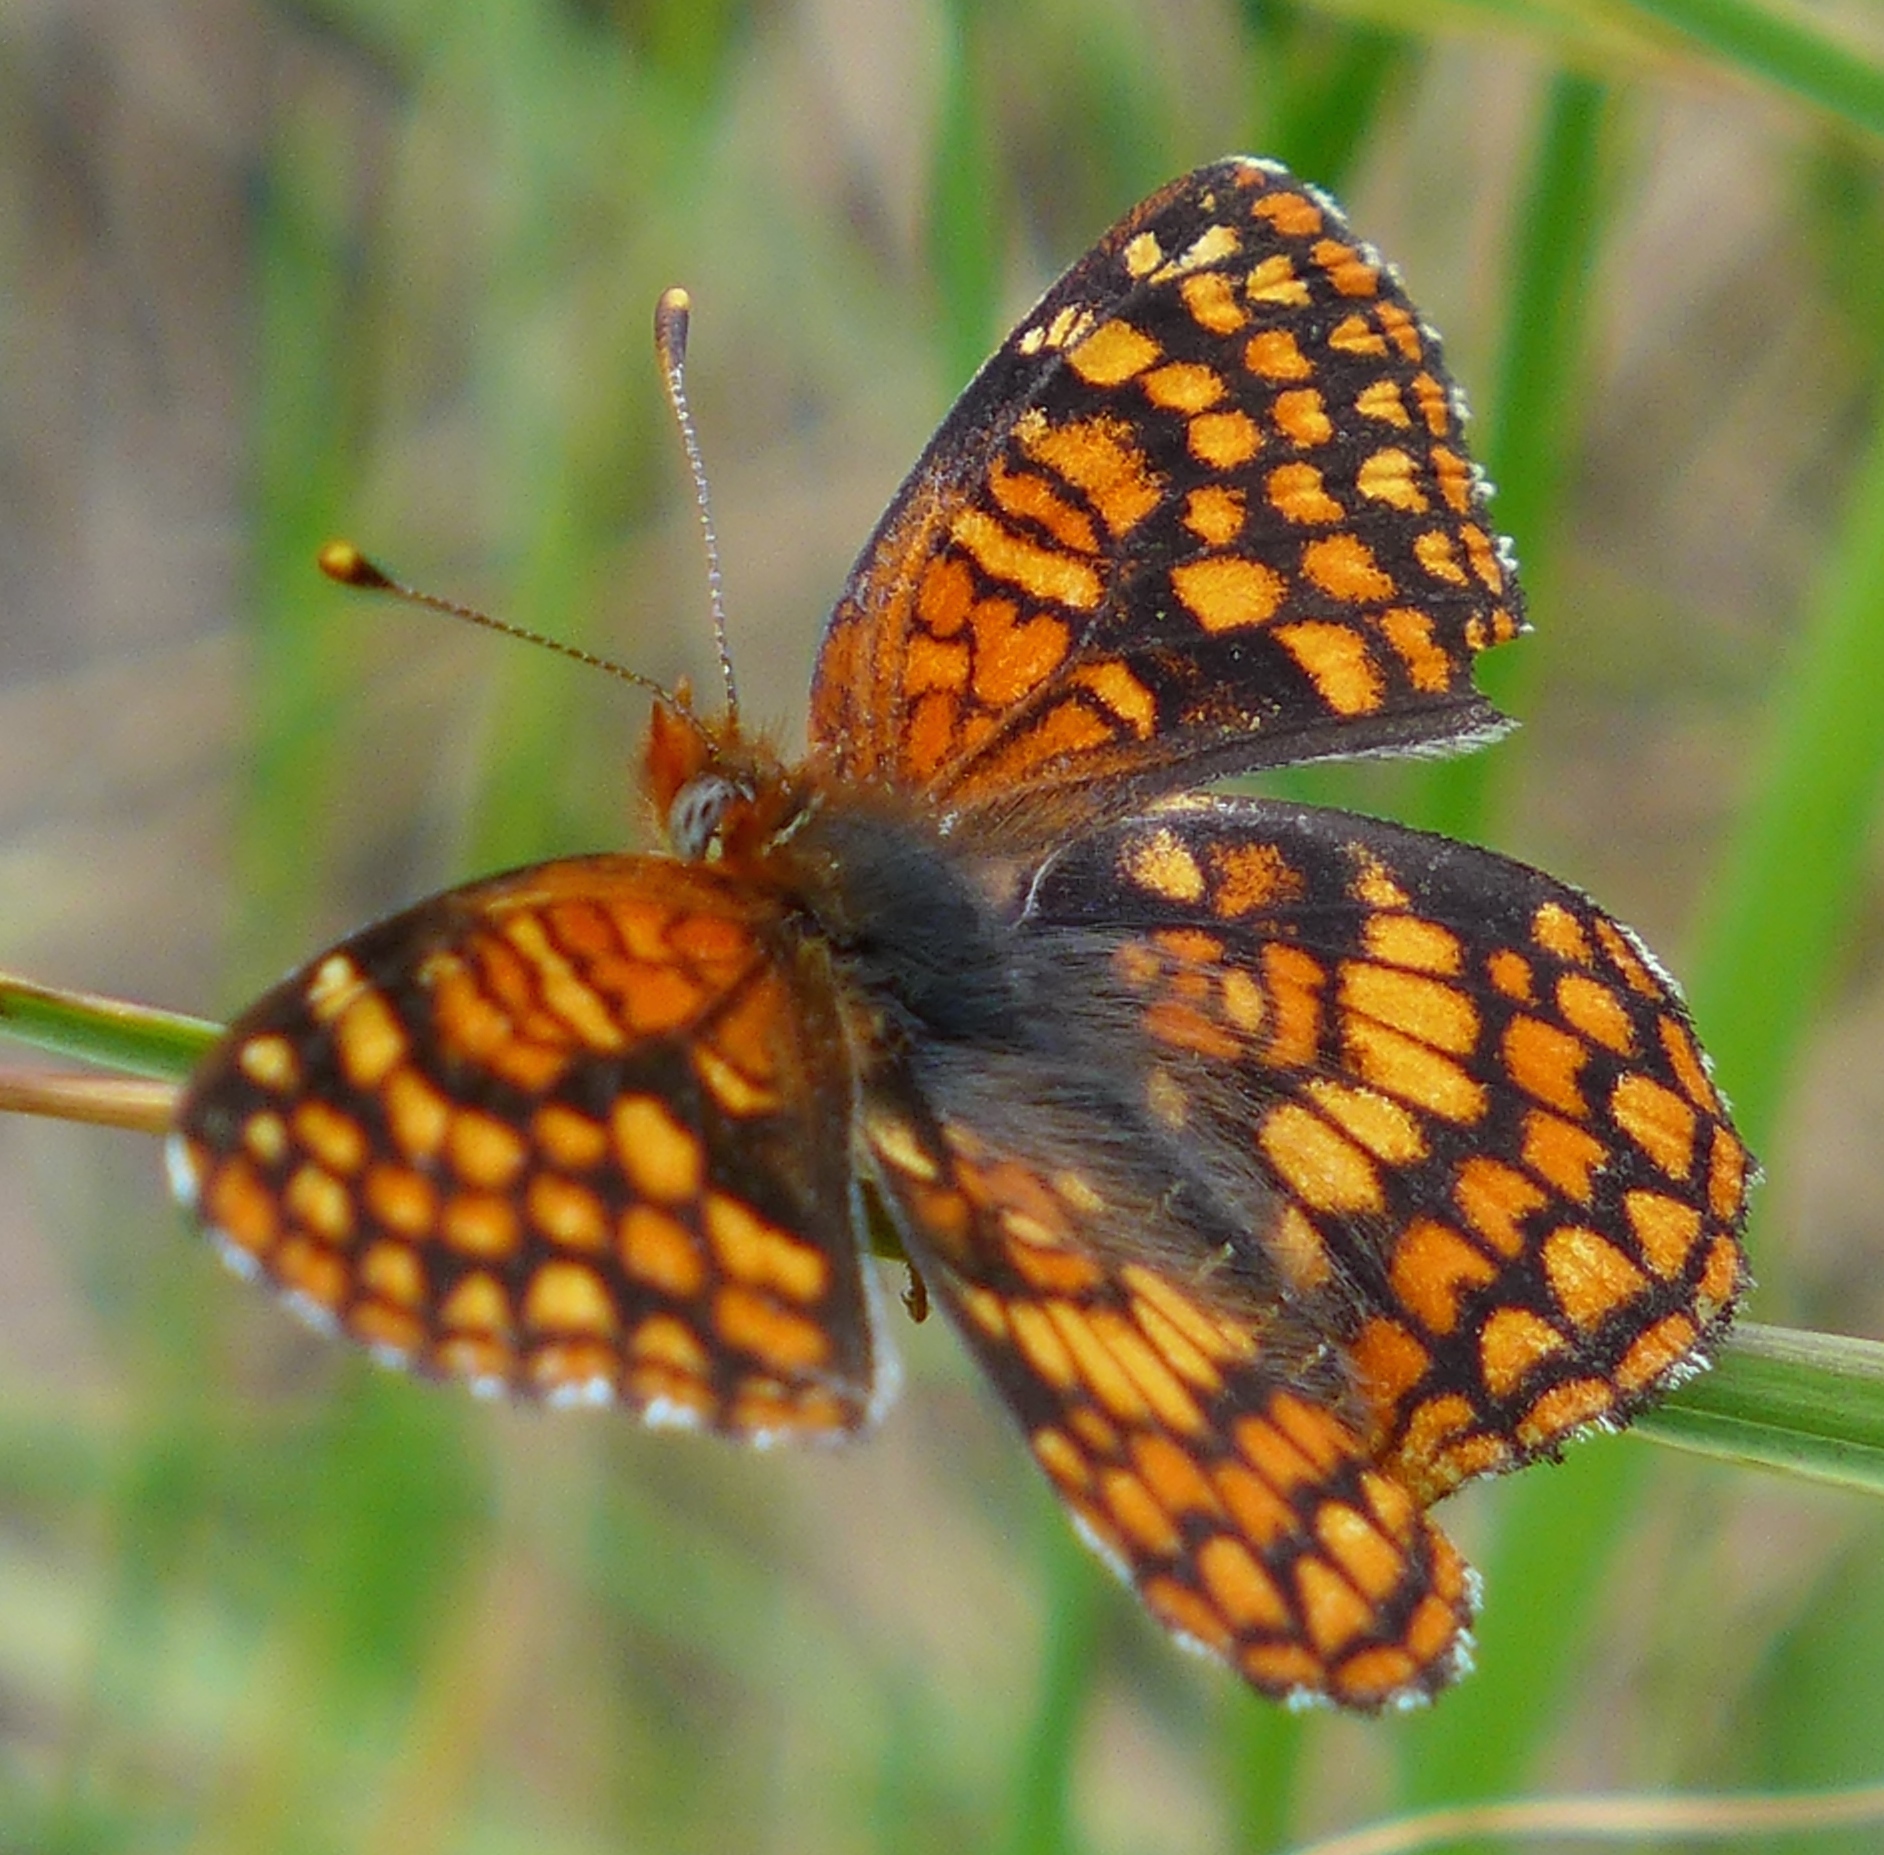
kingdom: Animalia
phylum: Arthropoda
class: Insecta
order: Lepidoptera
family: Nymphalidae
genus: Chlosyne
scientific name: Chlosyne palla
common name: Northern checkerspot
